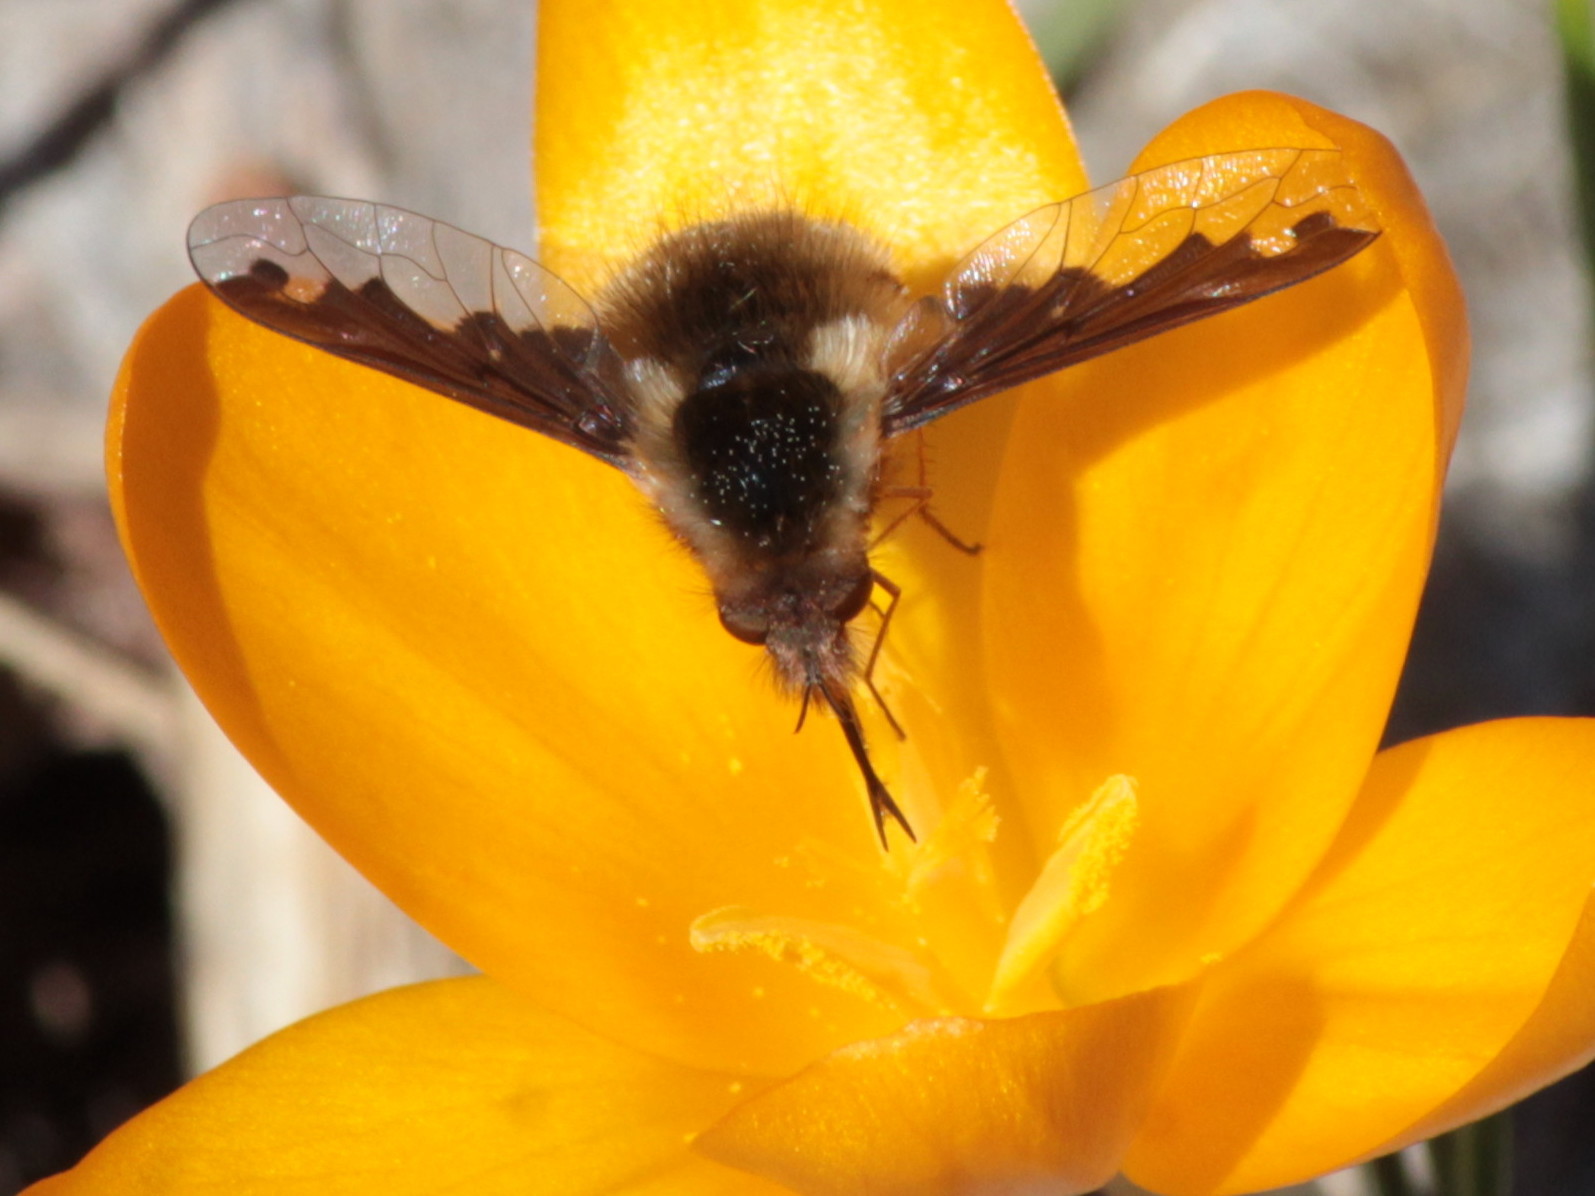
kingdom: Animalia
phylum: Arthropoda
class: Insecta
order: Diptera
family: Bombyliidae
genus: Bombylius
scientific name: Bombylius major
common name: Bee fly
